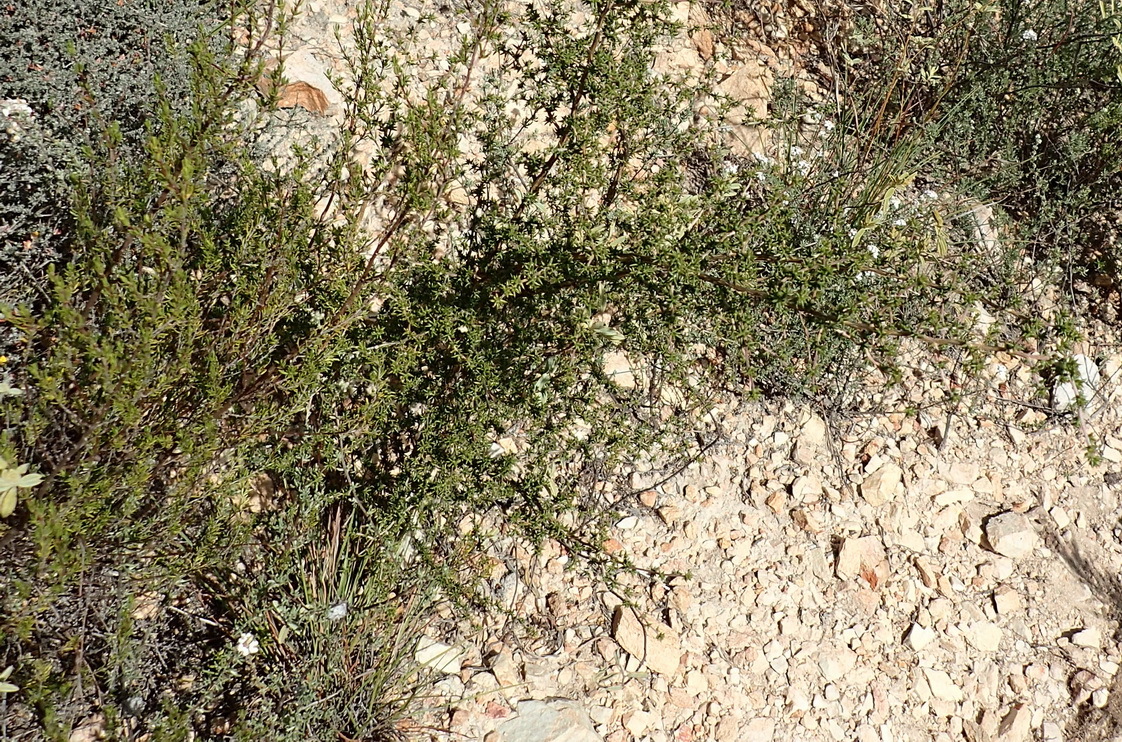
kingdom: Plantae
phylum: Tracheophyta
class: Magnoliopsida
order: Fabales
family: Fabaceae
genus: Aspalathus
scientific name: Aspalathus collina
